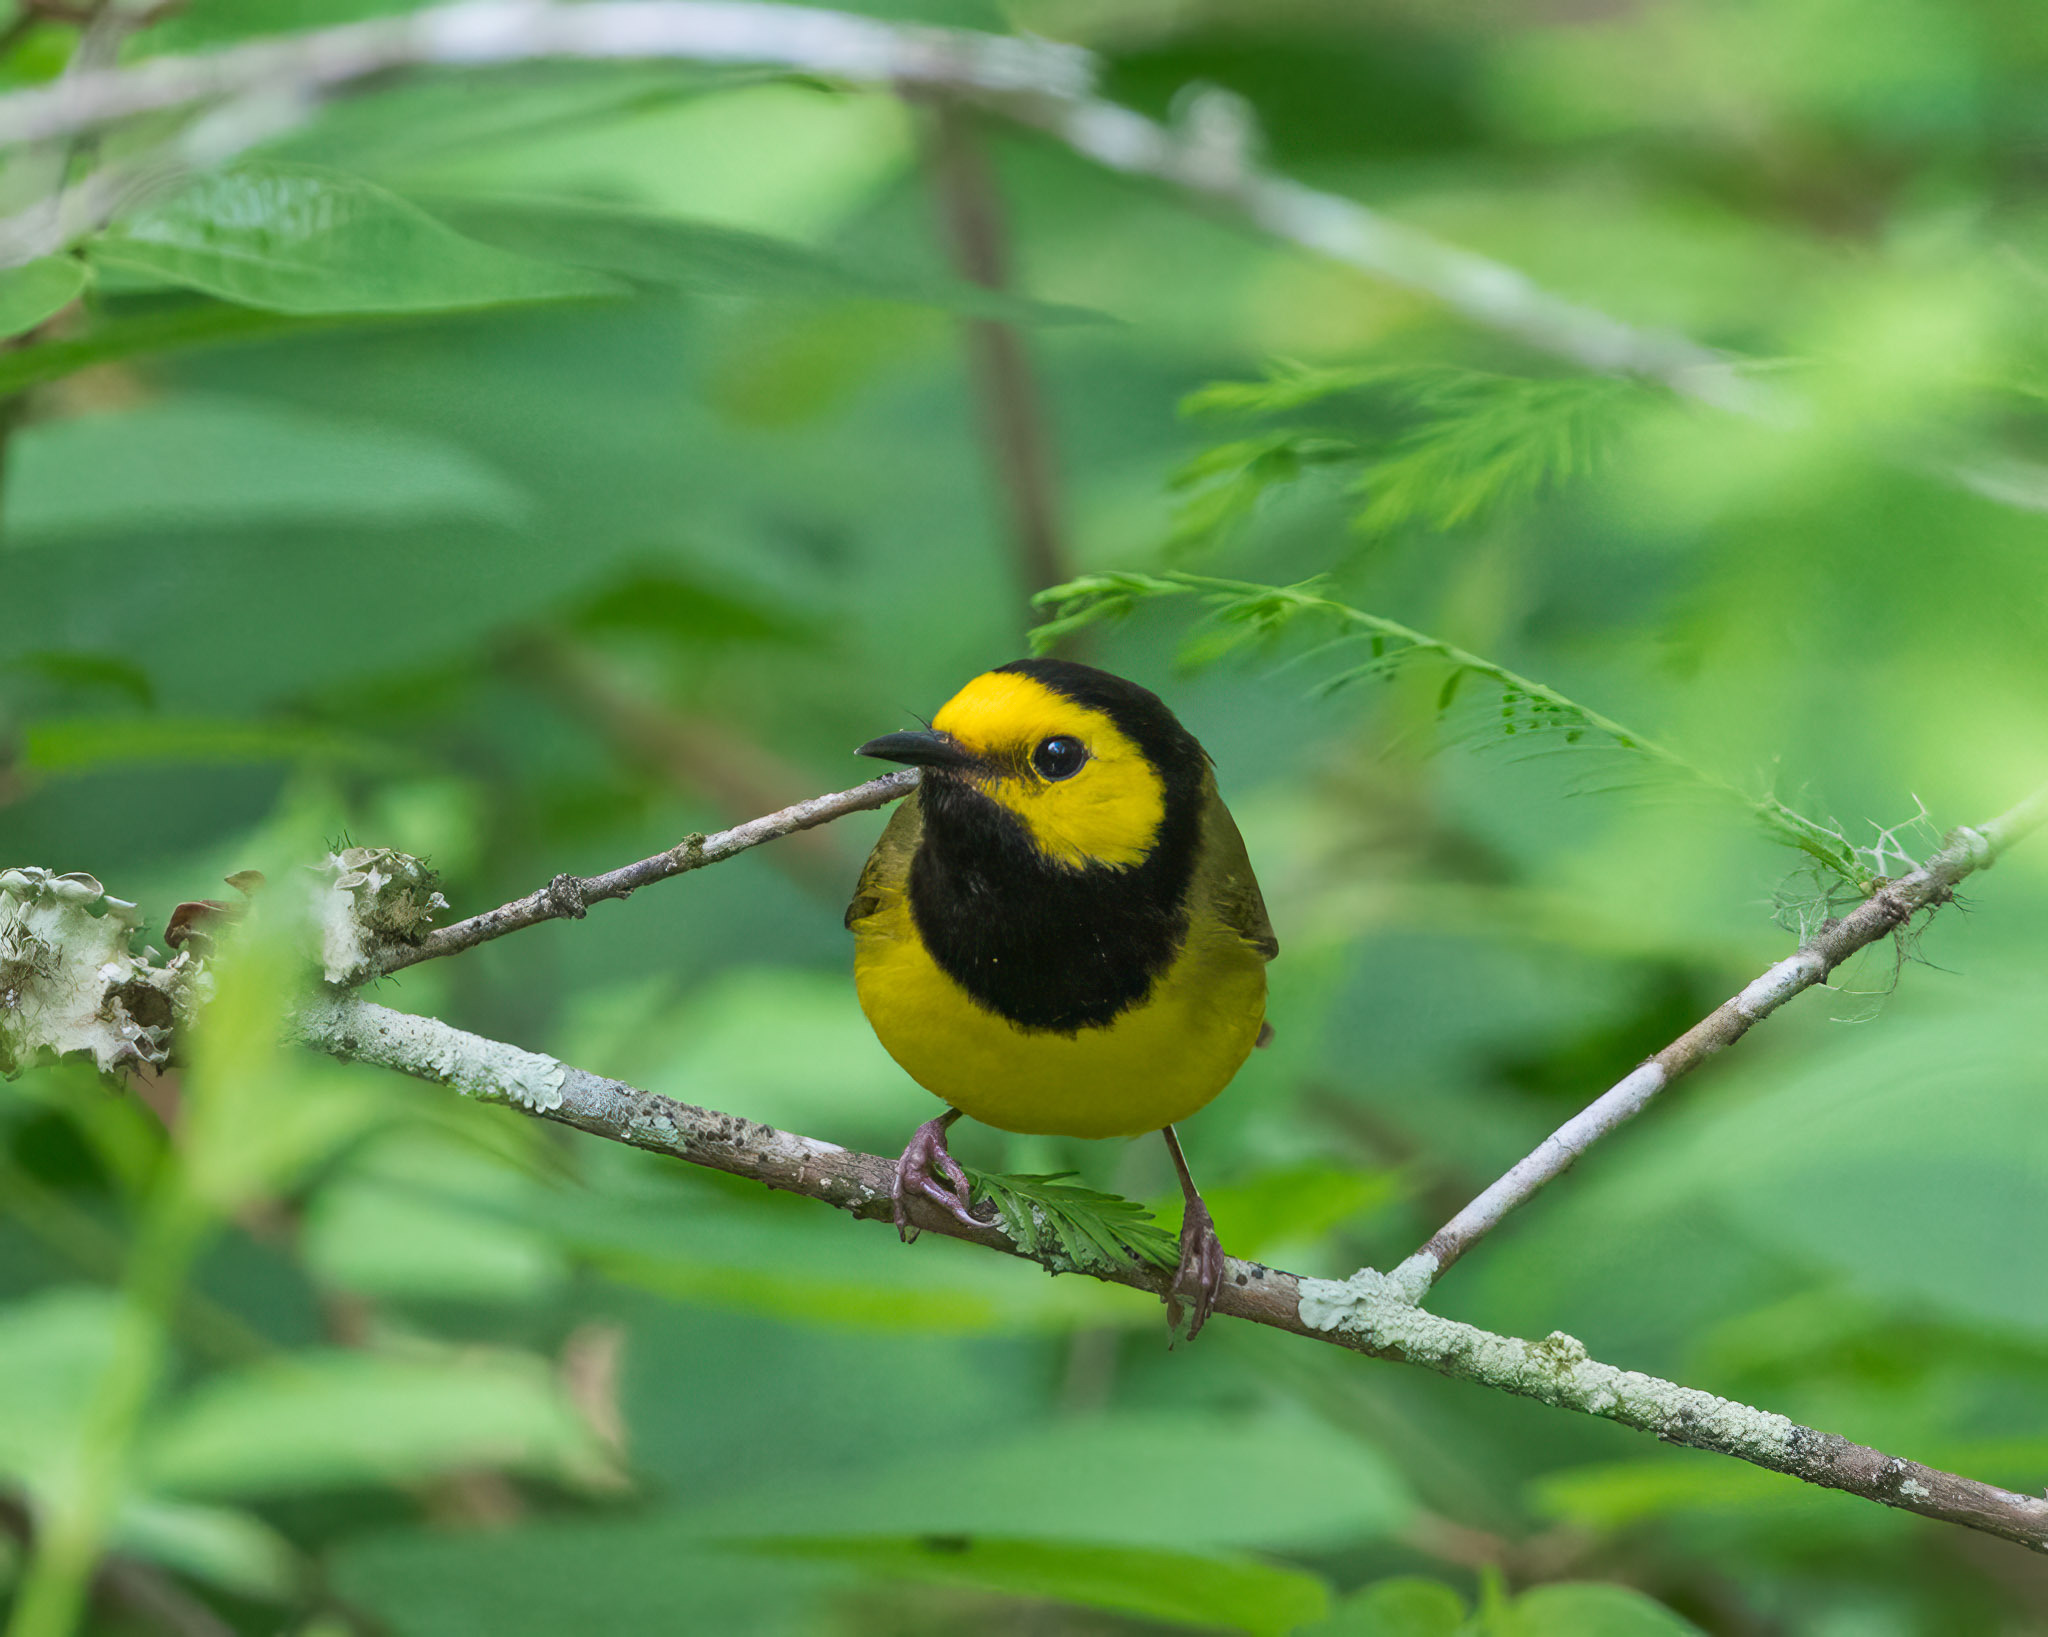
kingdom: Animalia
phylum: Chordata
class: Aves
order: Passeriformes
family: Parulidae
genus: Setophaga
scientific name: Setophaga citrina
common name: Hooded warbler
